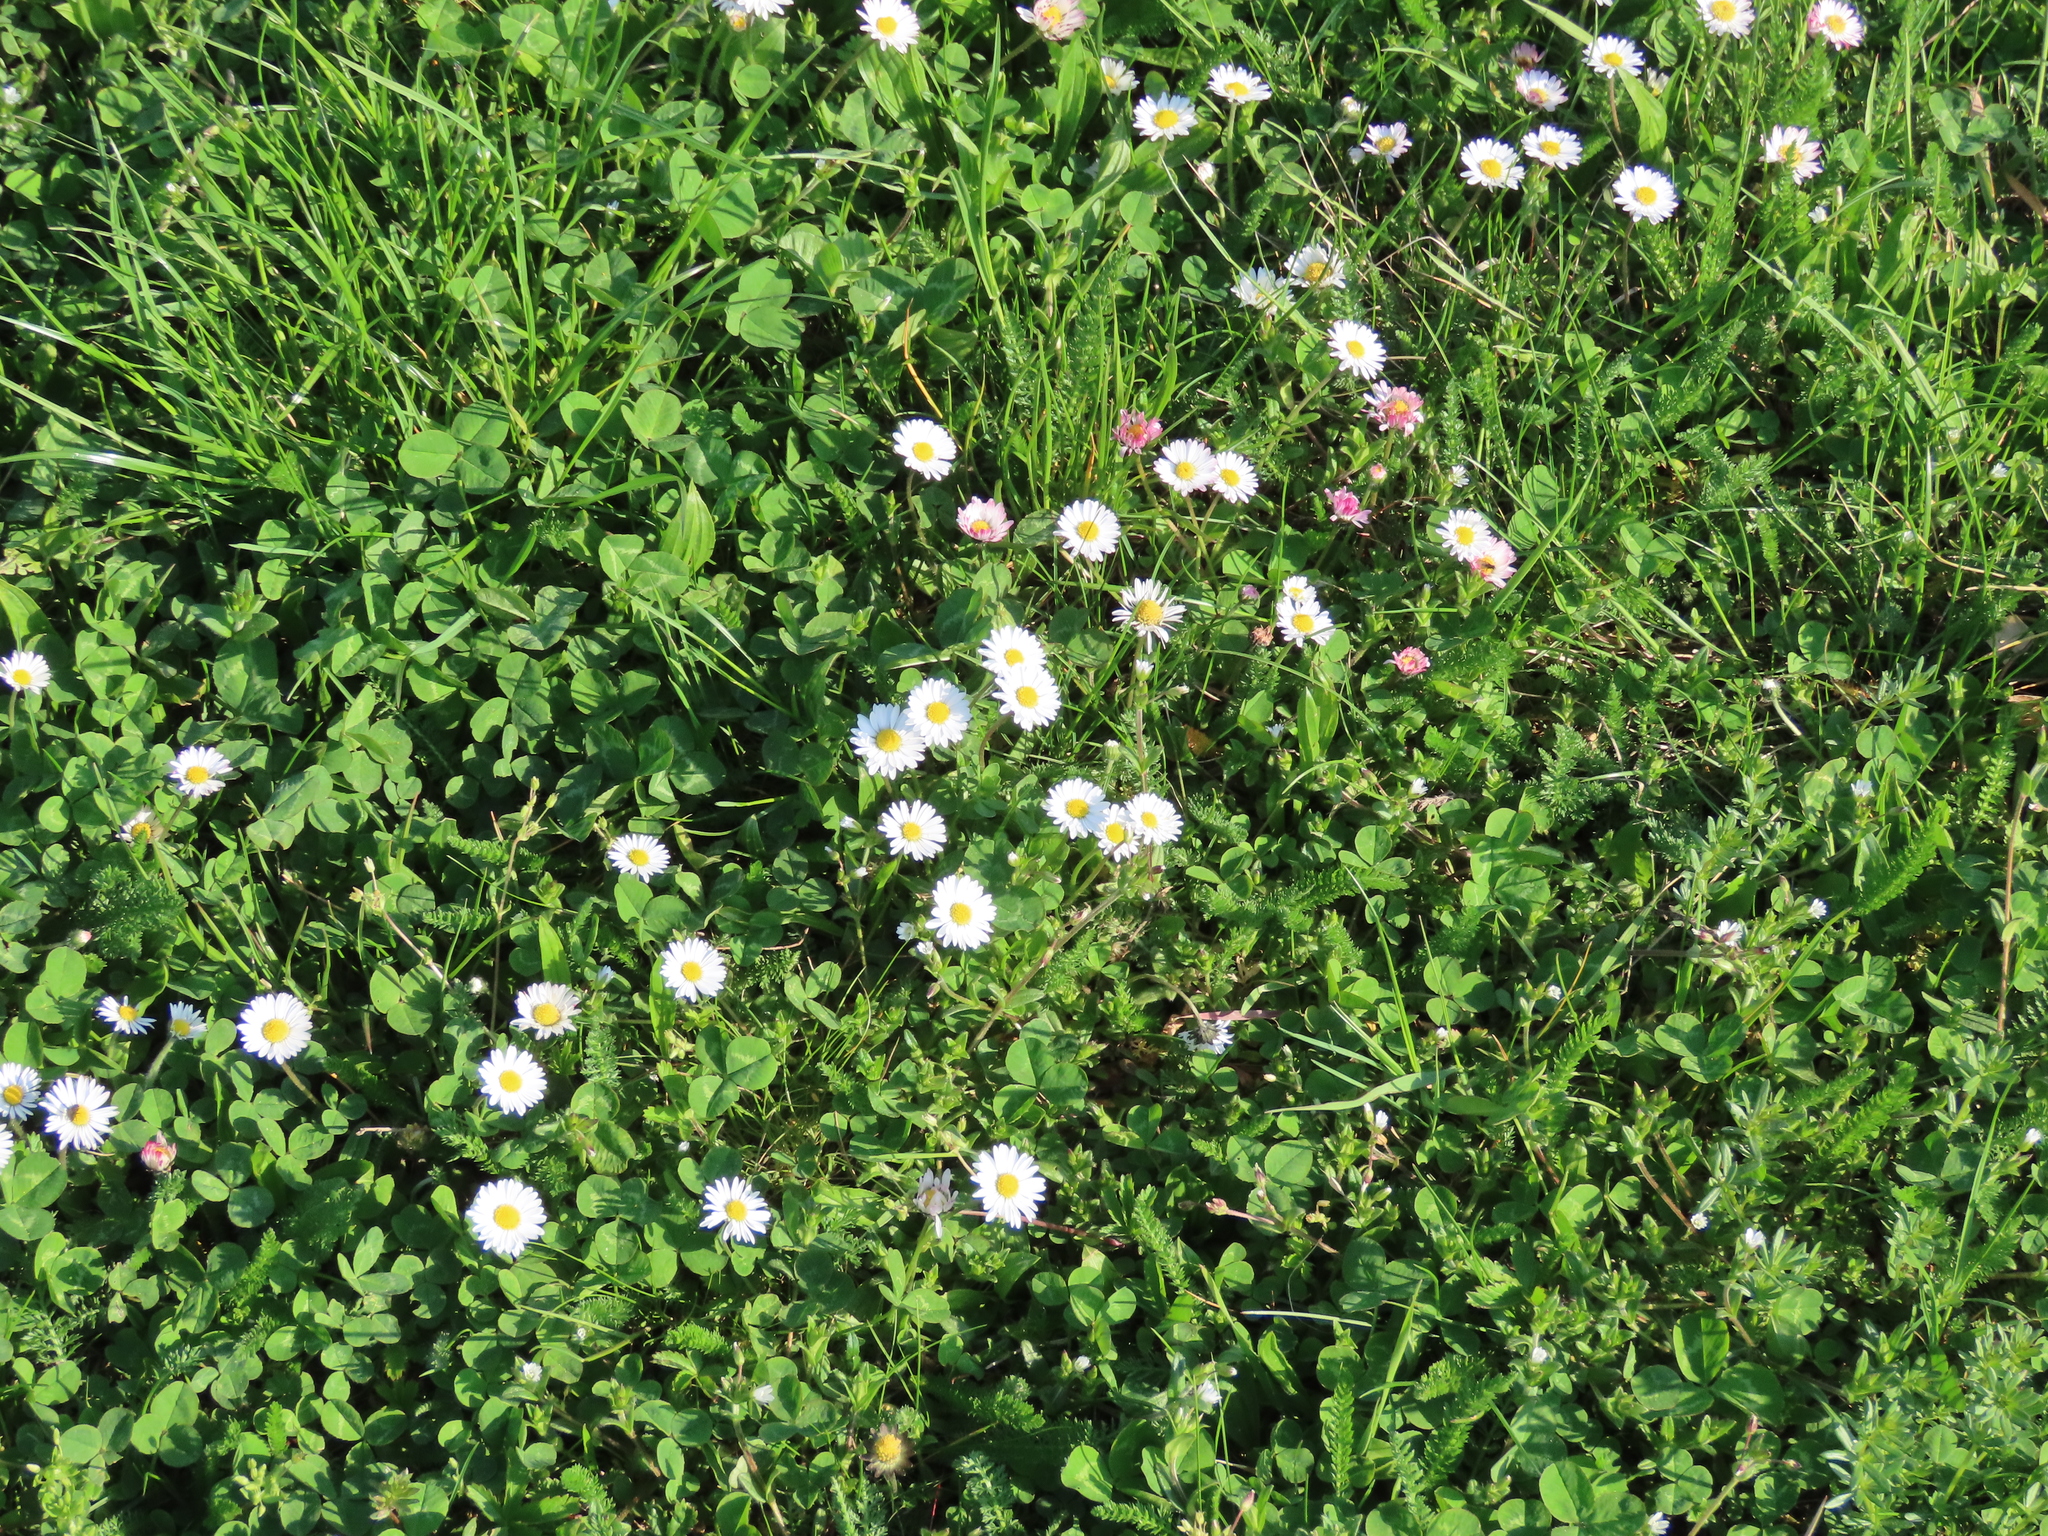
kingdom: Plantae
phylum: Tracheophyta
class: Magnoliopsida
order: Asterales
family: Asteraceae
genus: Bellis
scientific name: Bellis perennis
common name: Lawndaisy
